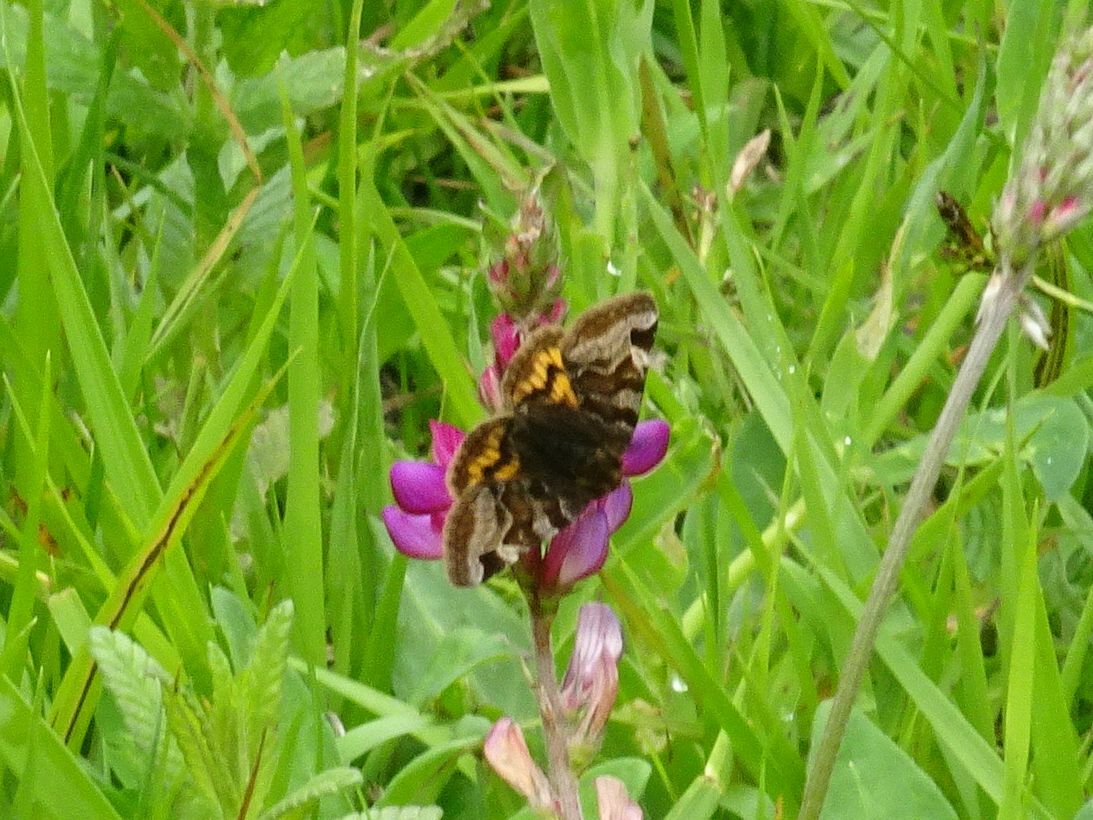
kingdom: Animalia
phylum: Arthropoda
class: Insecta
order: Lepidoptera
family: Erebidae
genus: Euclidia
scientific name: Euclidia glyphica
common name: Burnet companion
